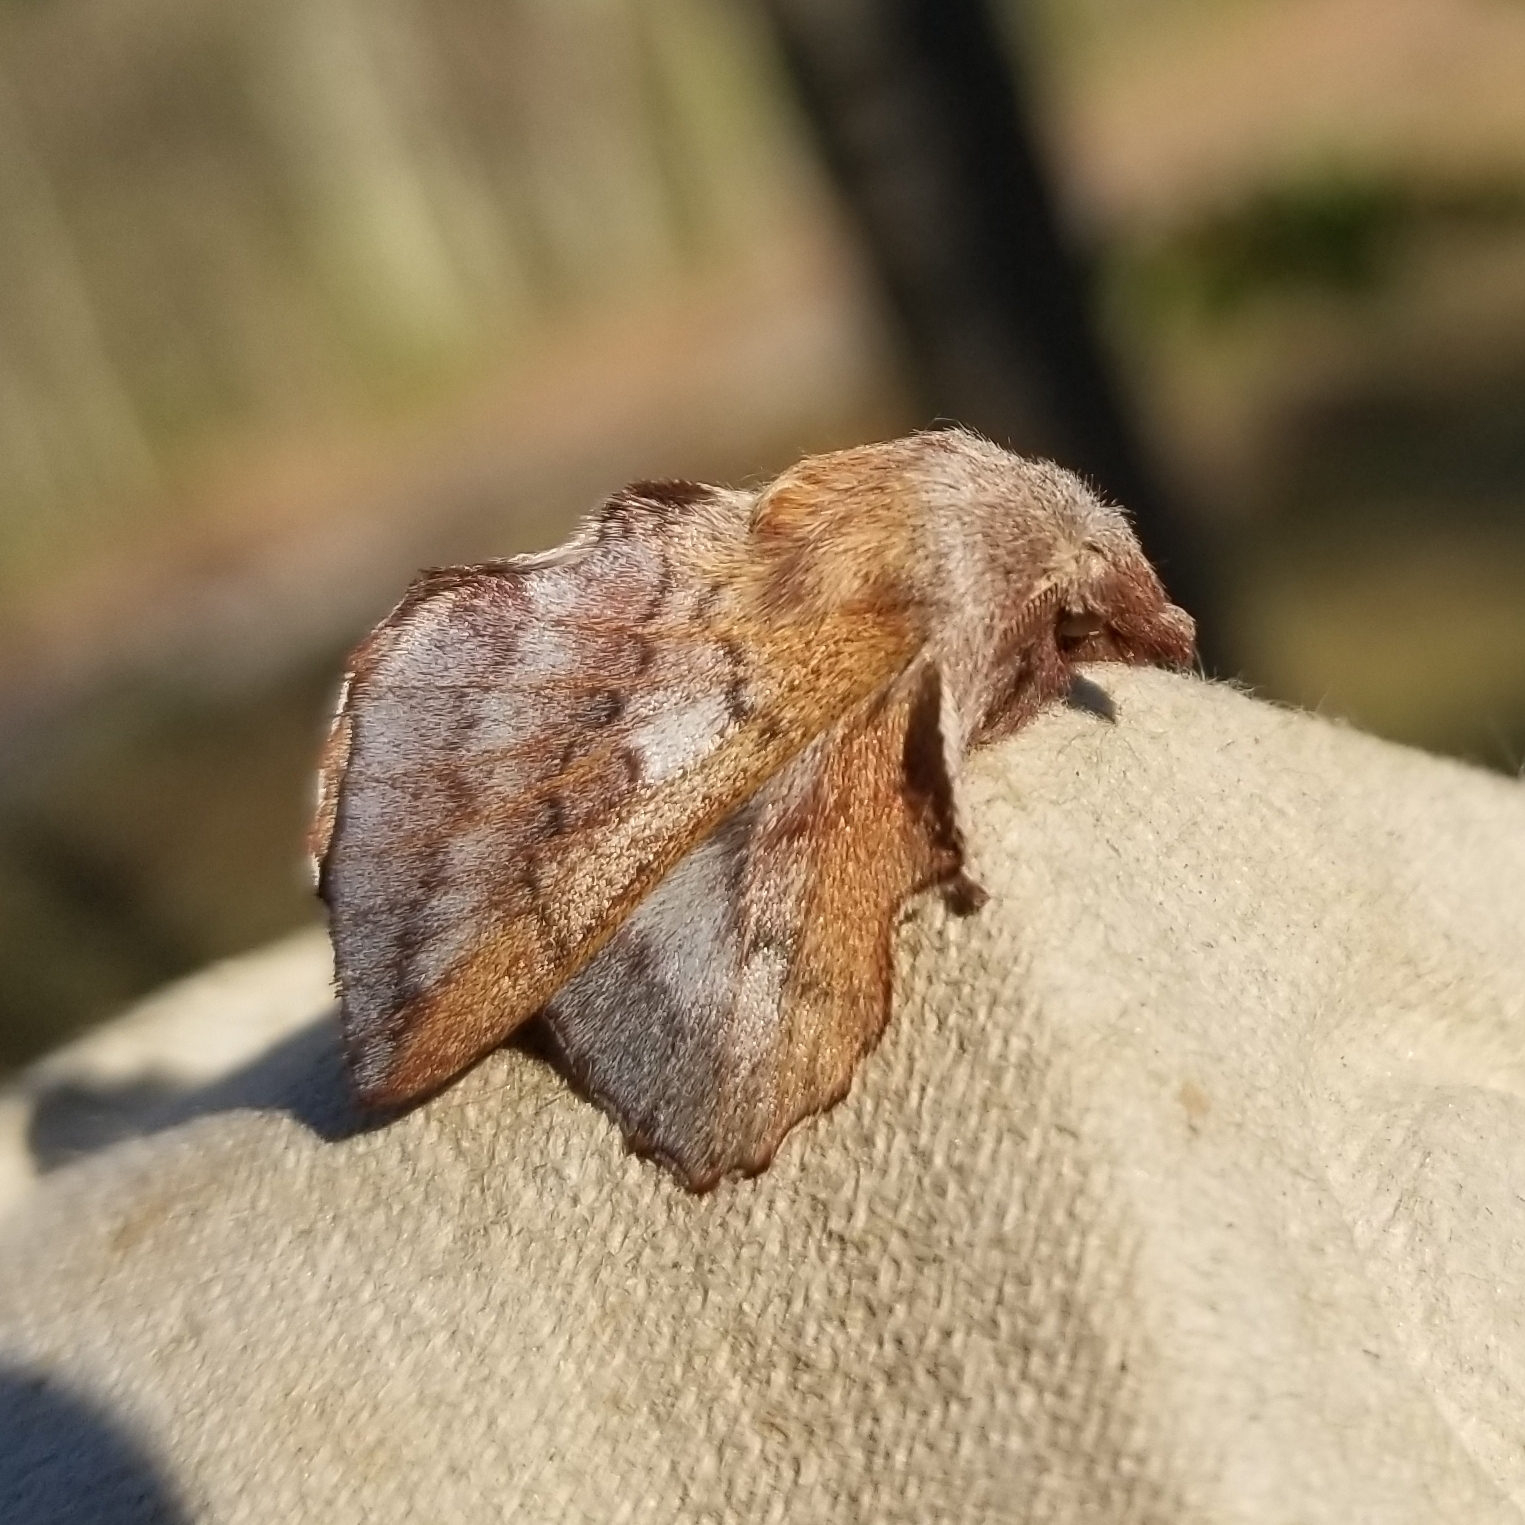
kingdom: Animalia
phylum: Arthropoda
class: Insecta
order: Lepidoptera
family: Lasiocampidae
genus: Phyllodesma
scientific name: Phyllodesma americana
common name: American lappet moth
